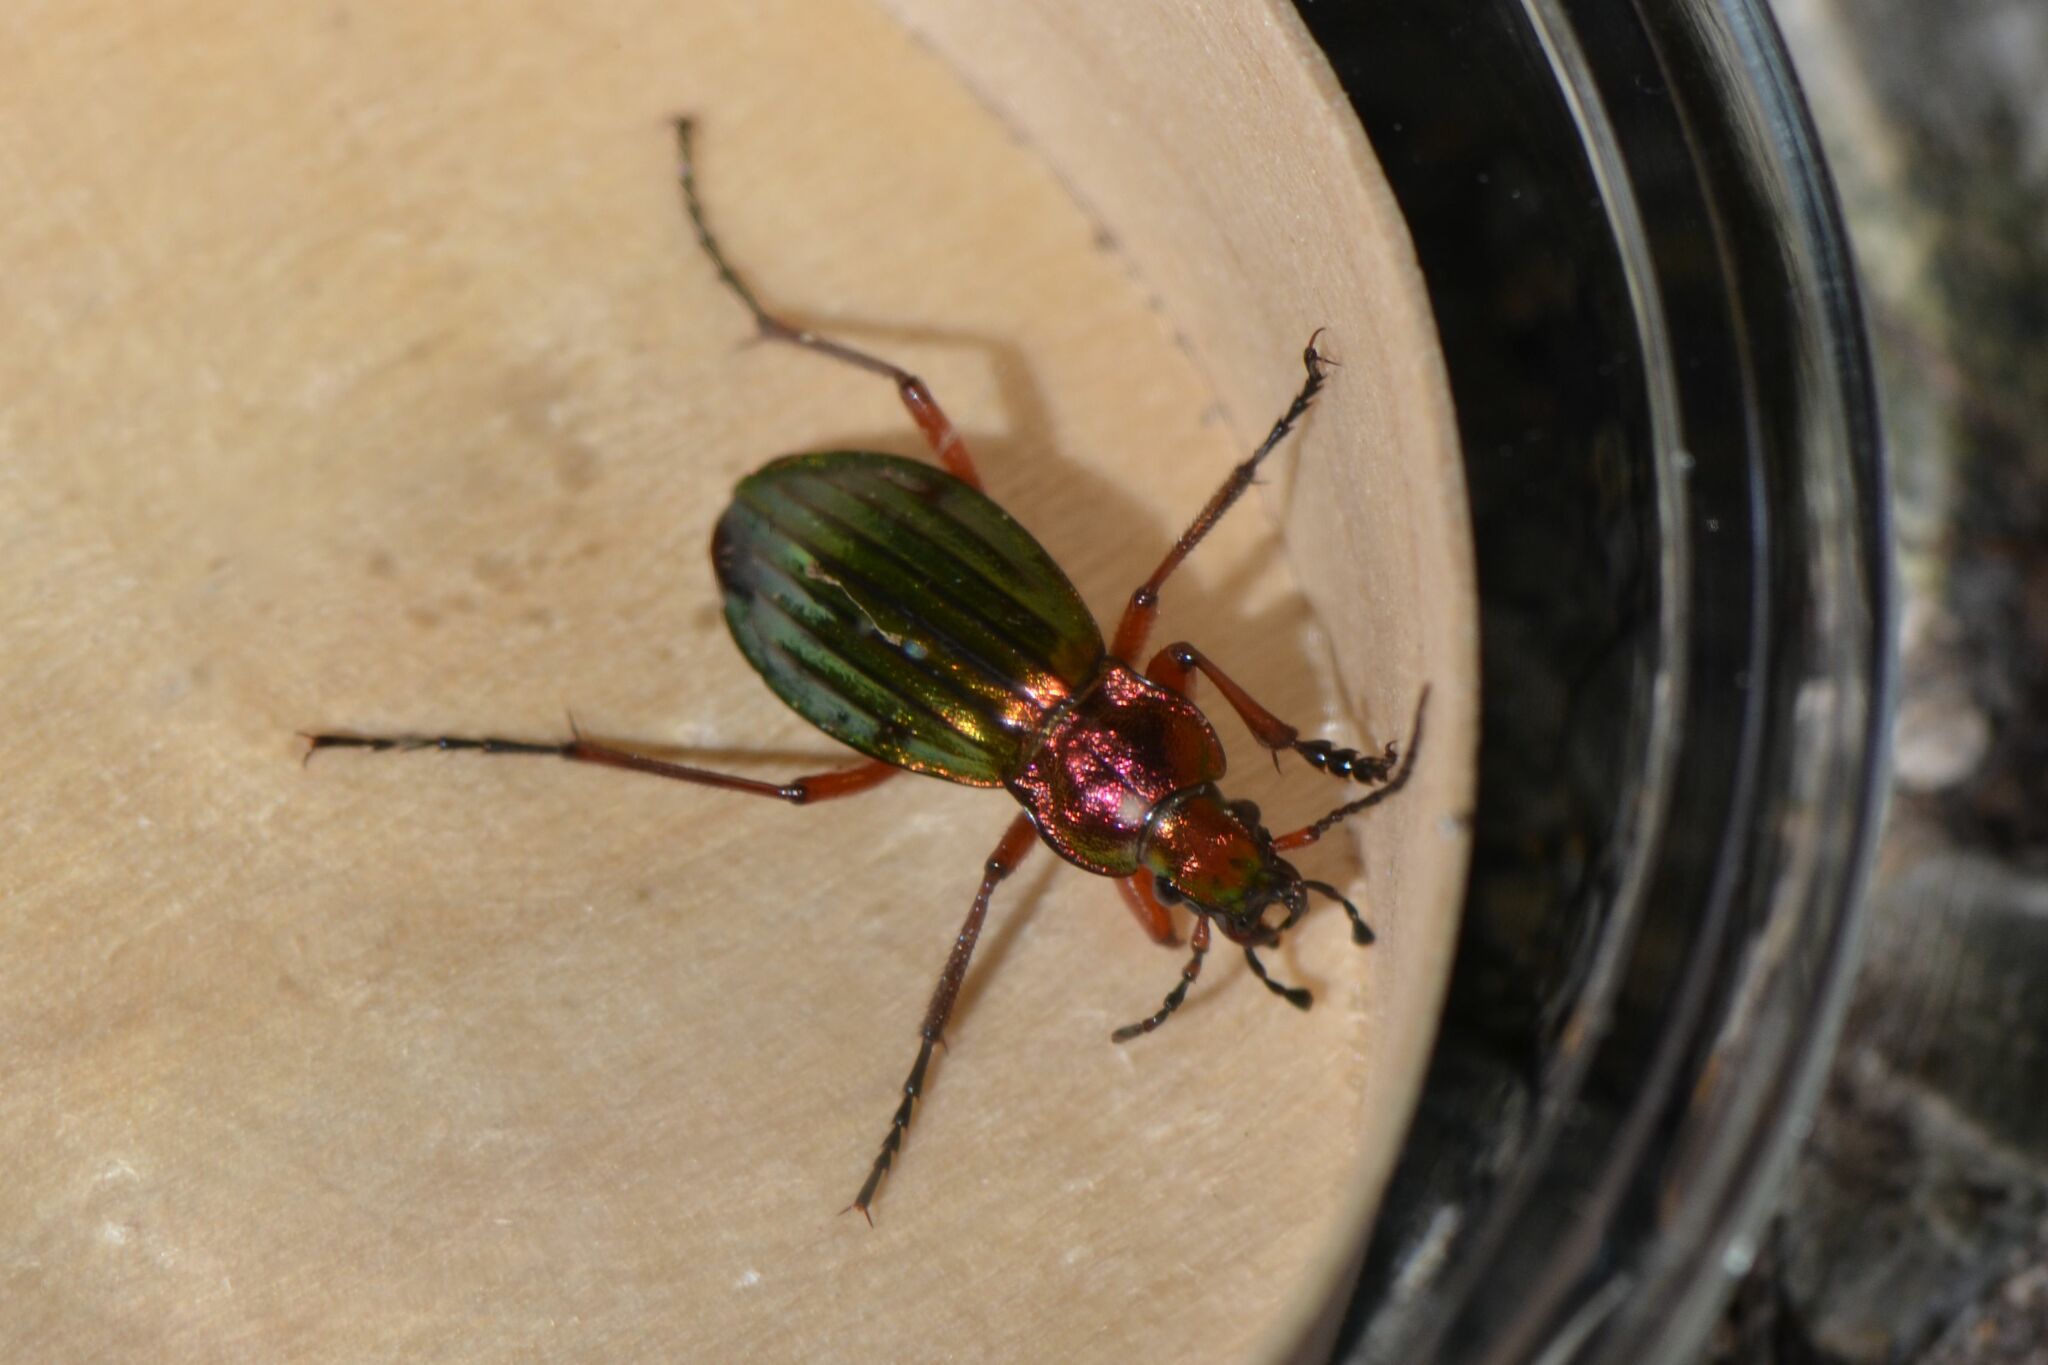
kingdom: Animalia
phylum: Arthropoda
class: Insecta
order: Coleoptera
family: Carabidae
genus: Carabus
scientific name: Carabus auronitens
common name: Carabus auronitens
